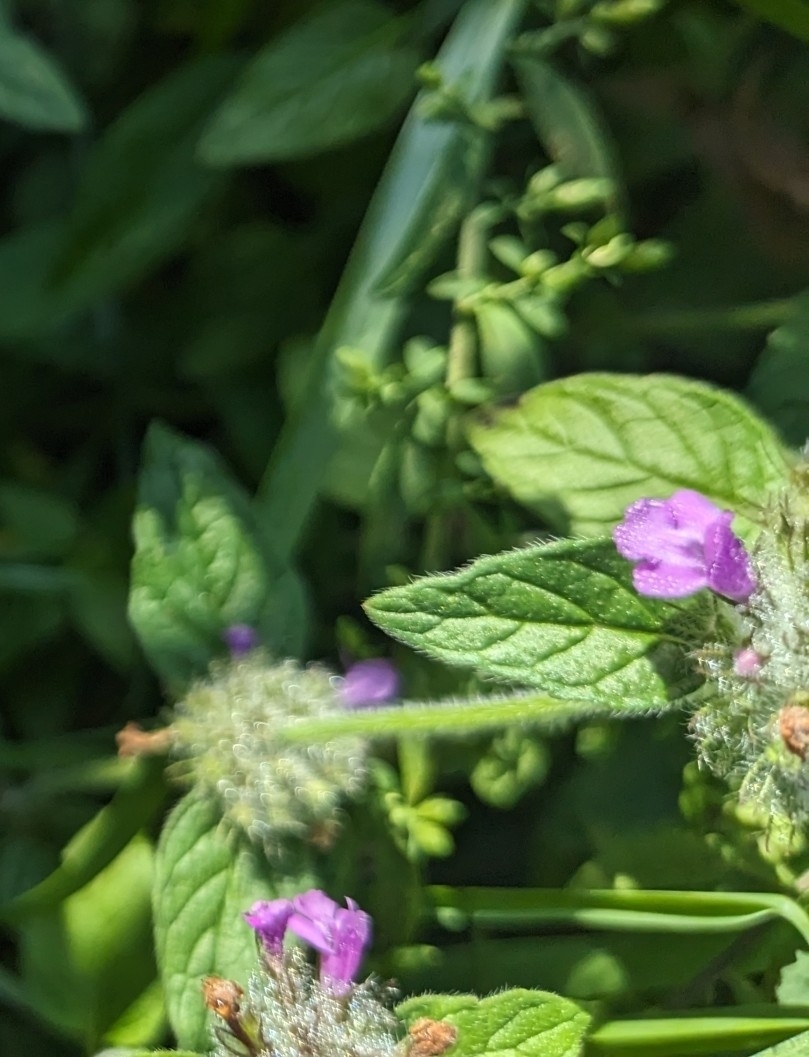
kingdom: Plantae
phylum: Tracheophyta
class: Magnoliopsida
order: Lamiales
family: Lamiaceae
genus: Clinopodium
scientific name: Clinopodium vulgare
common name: Wild basil
